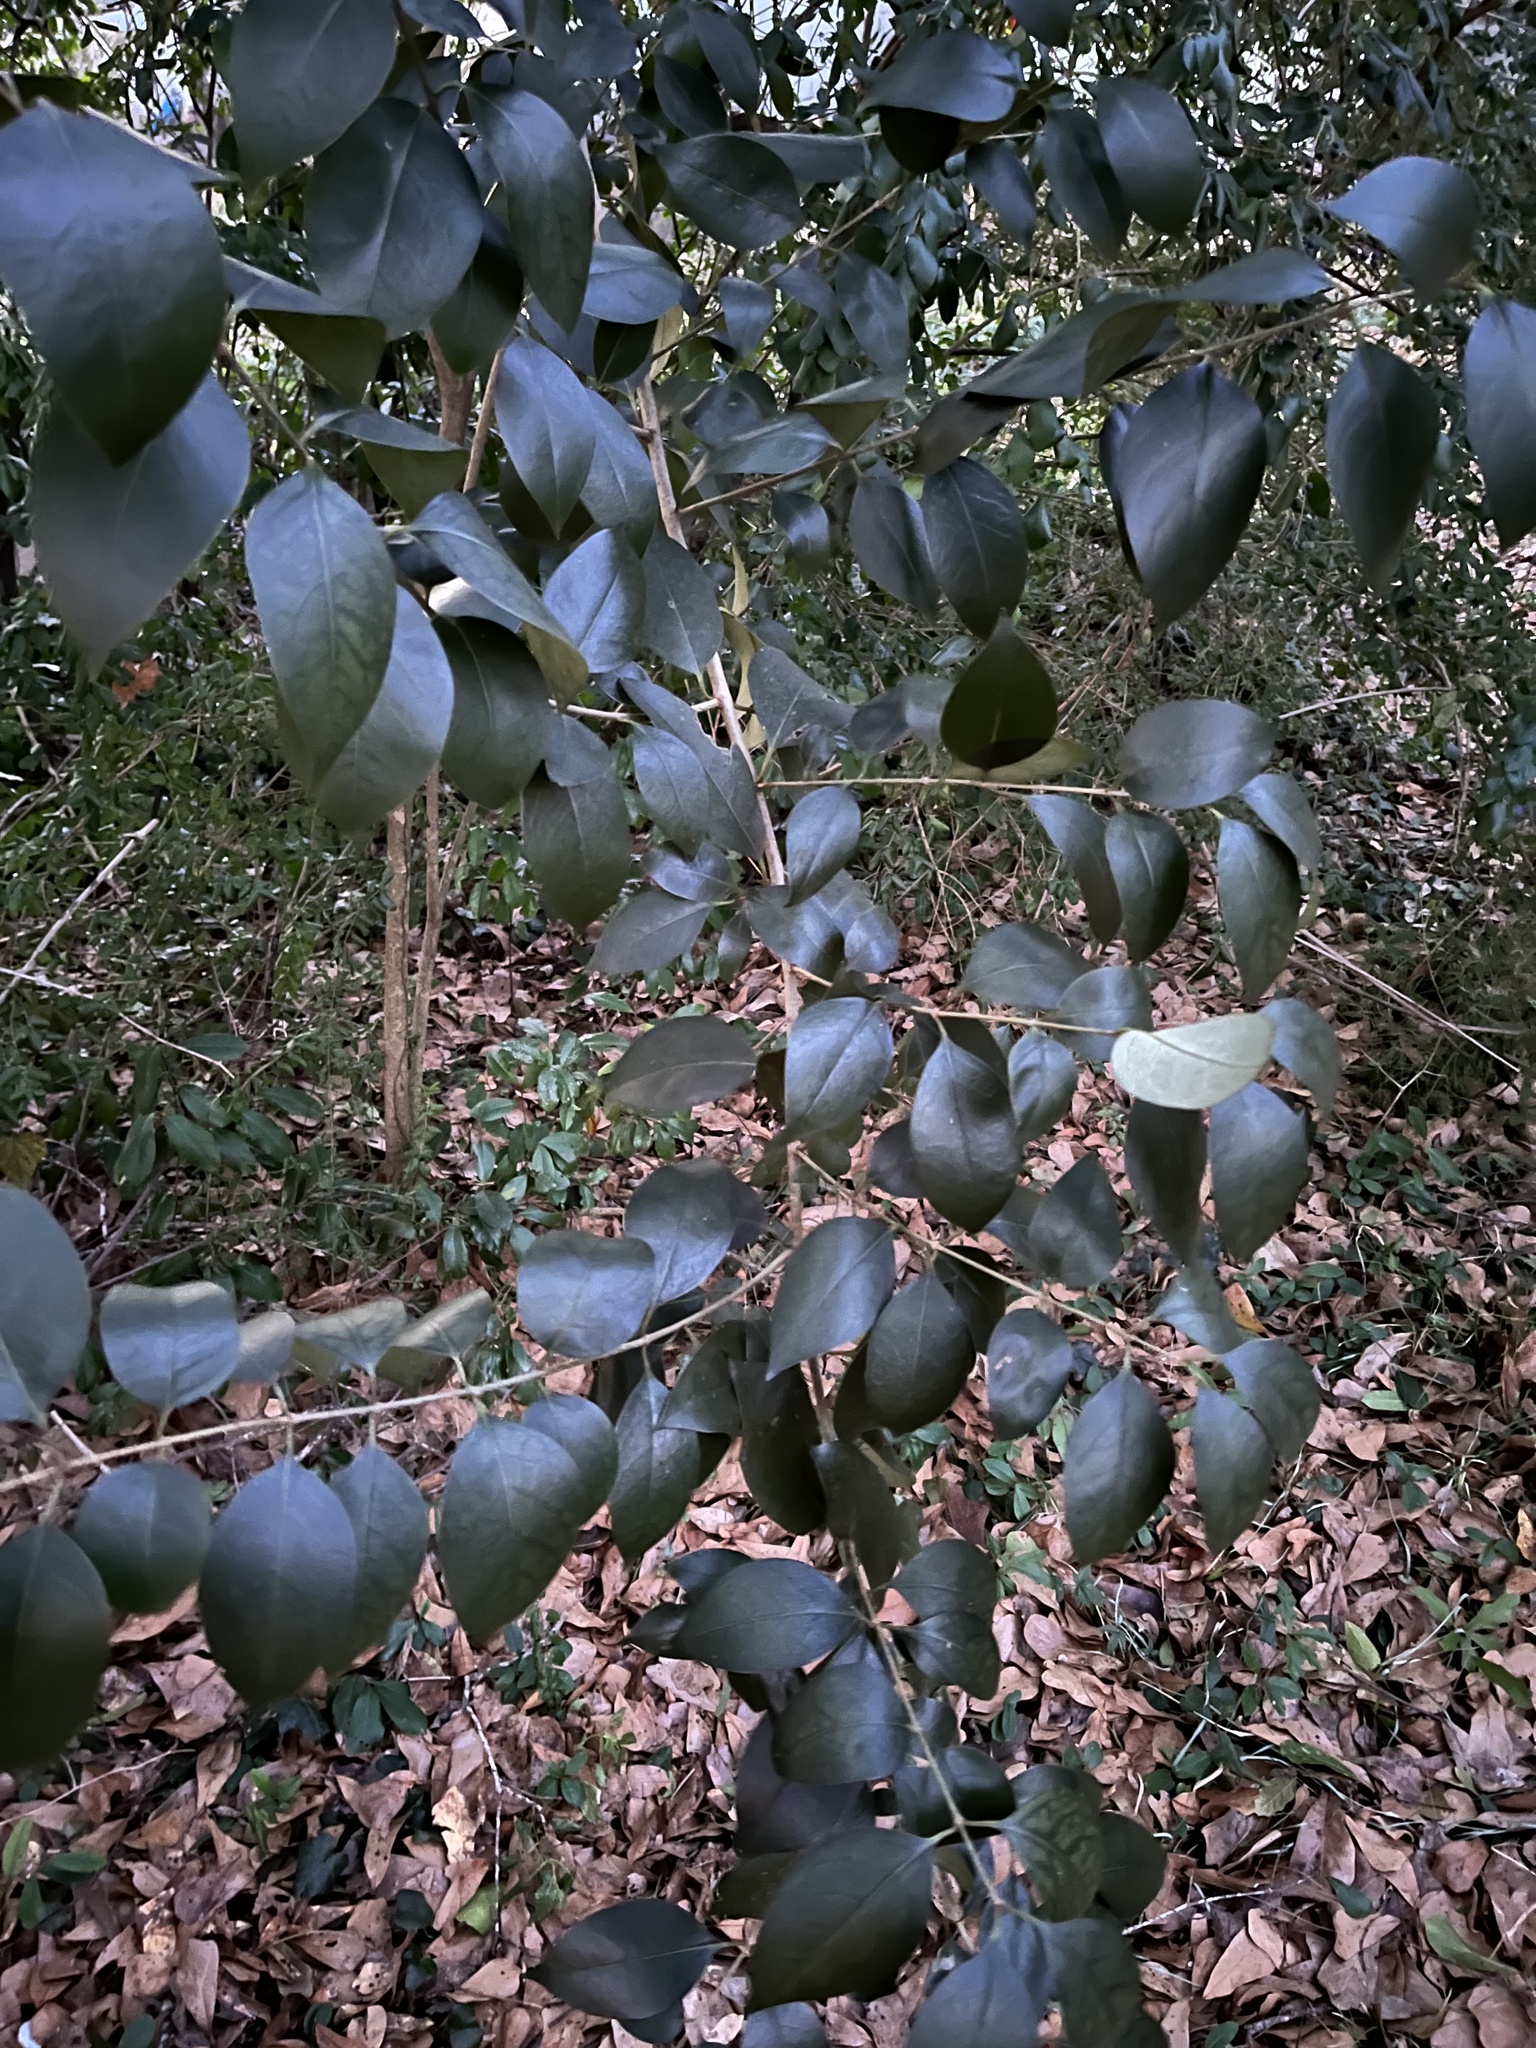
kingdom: Plantae
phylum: Tracheophyta
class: Magnoliopsida
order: Lamiales
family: Oleaceae
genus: Ligustrum
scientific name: Ligustrum lucidum
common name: Glossy privet
